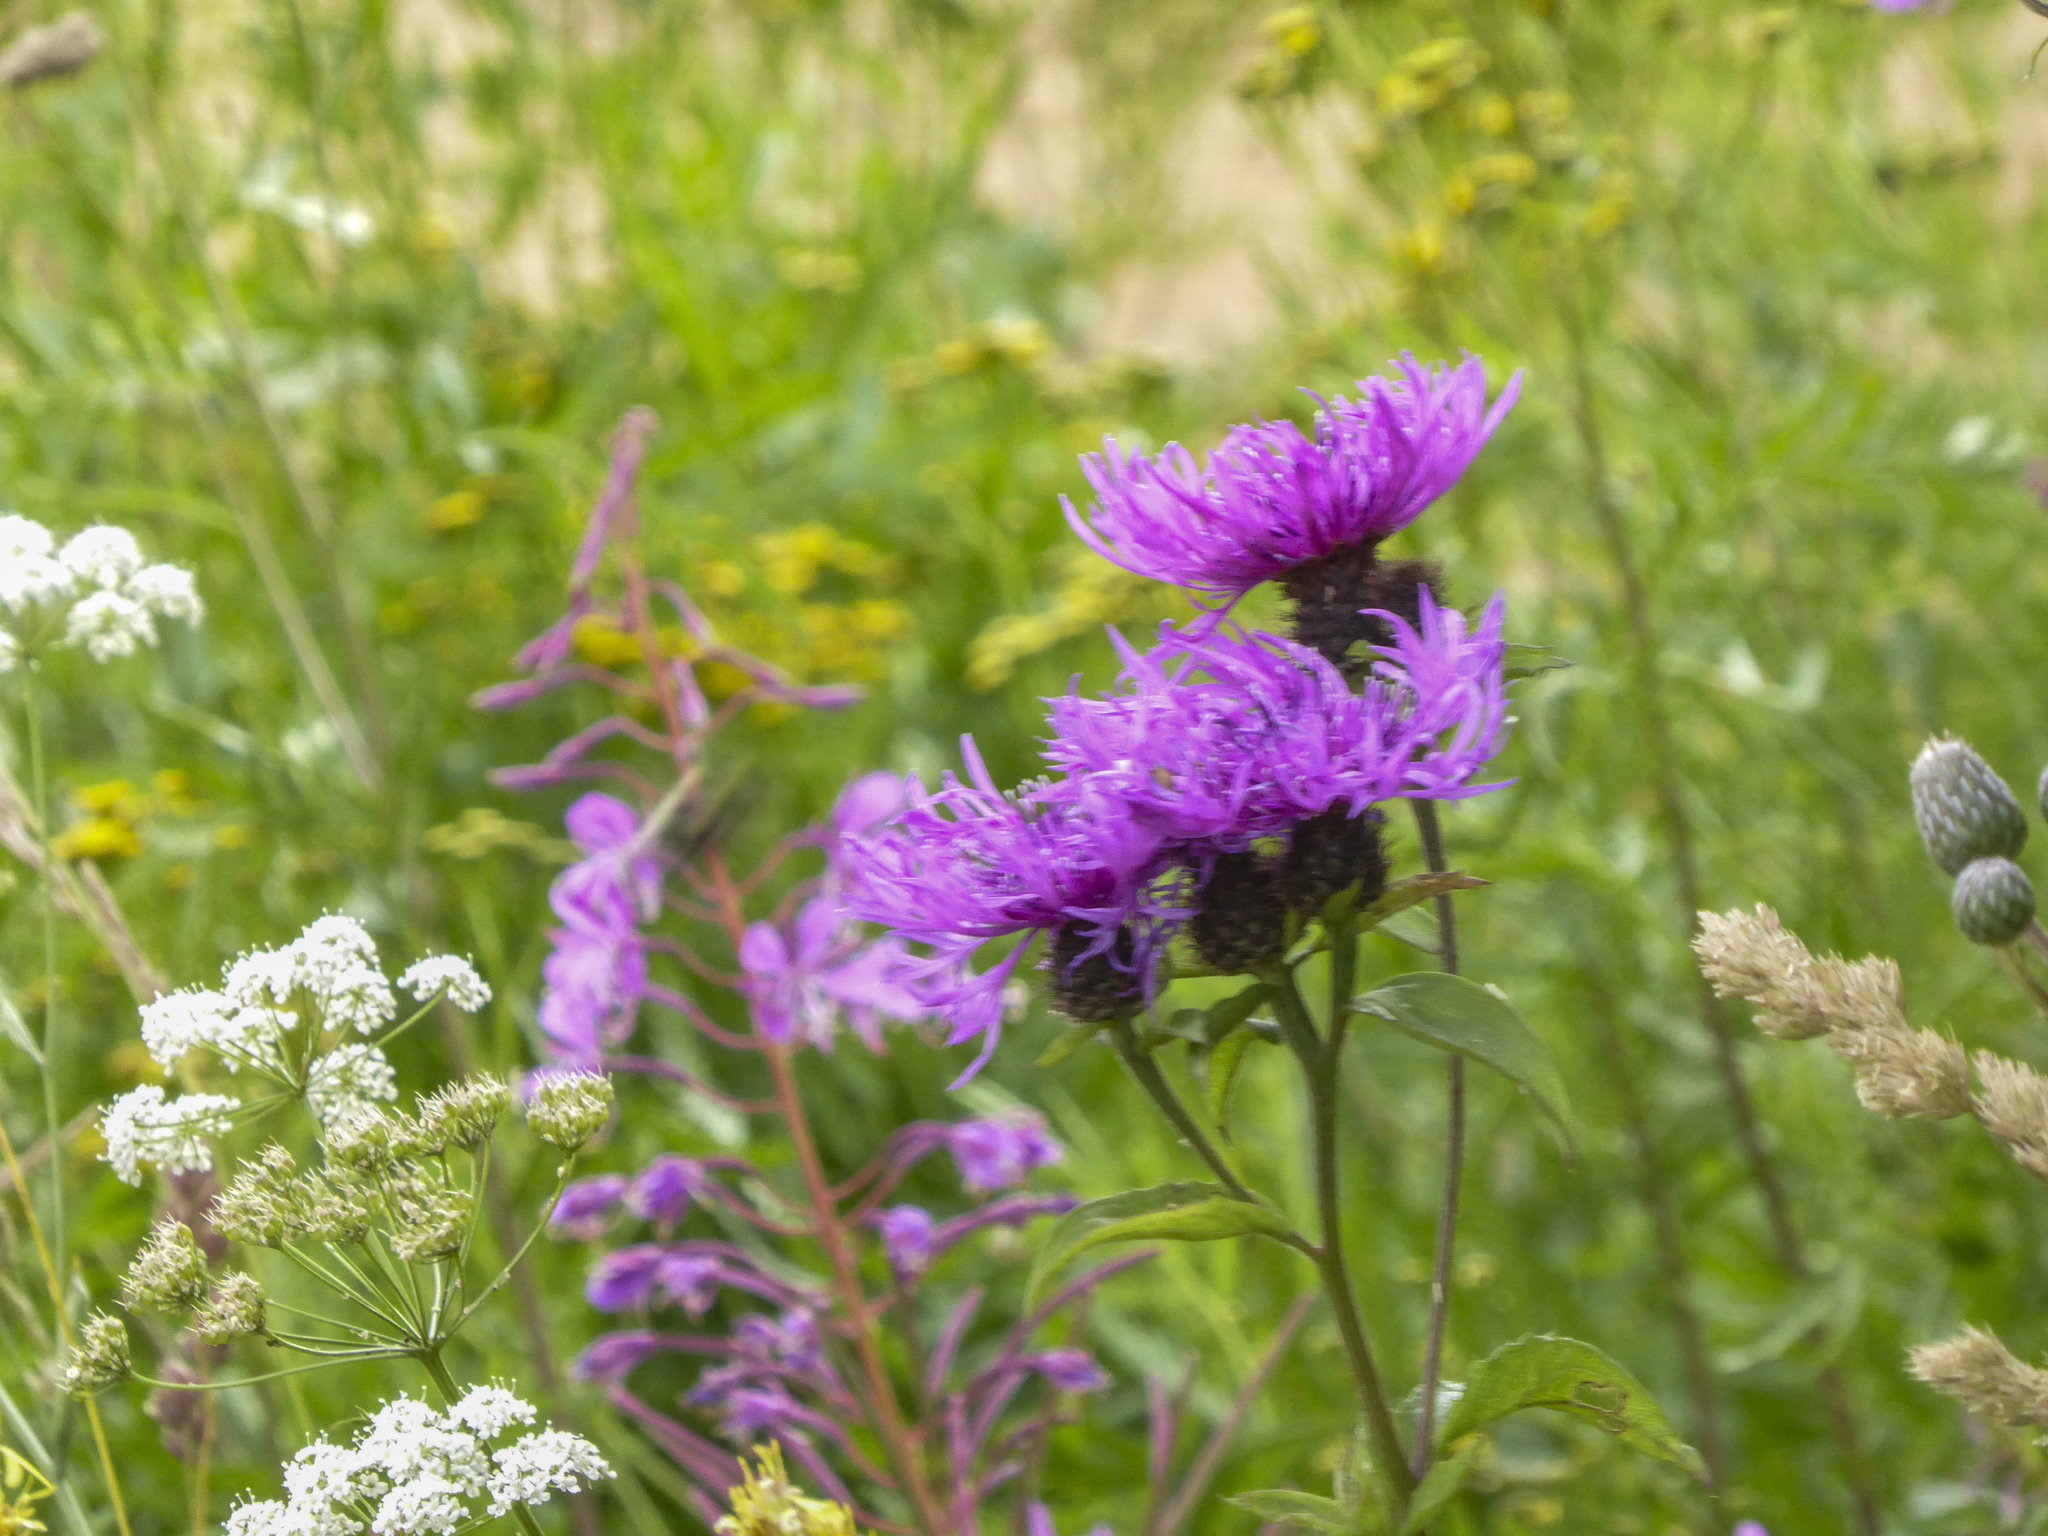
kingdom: Plantae
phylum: Tracheophyta
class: Magnoliopsida
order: Asterales
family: Asteraceae
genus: Centaurea
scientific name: Centaurea phrygia
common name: Wig knapweed
